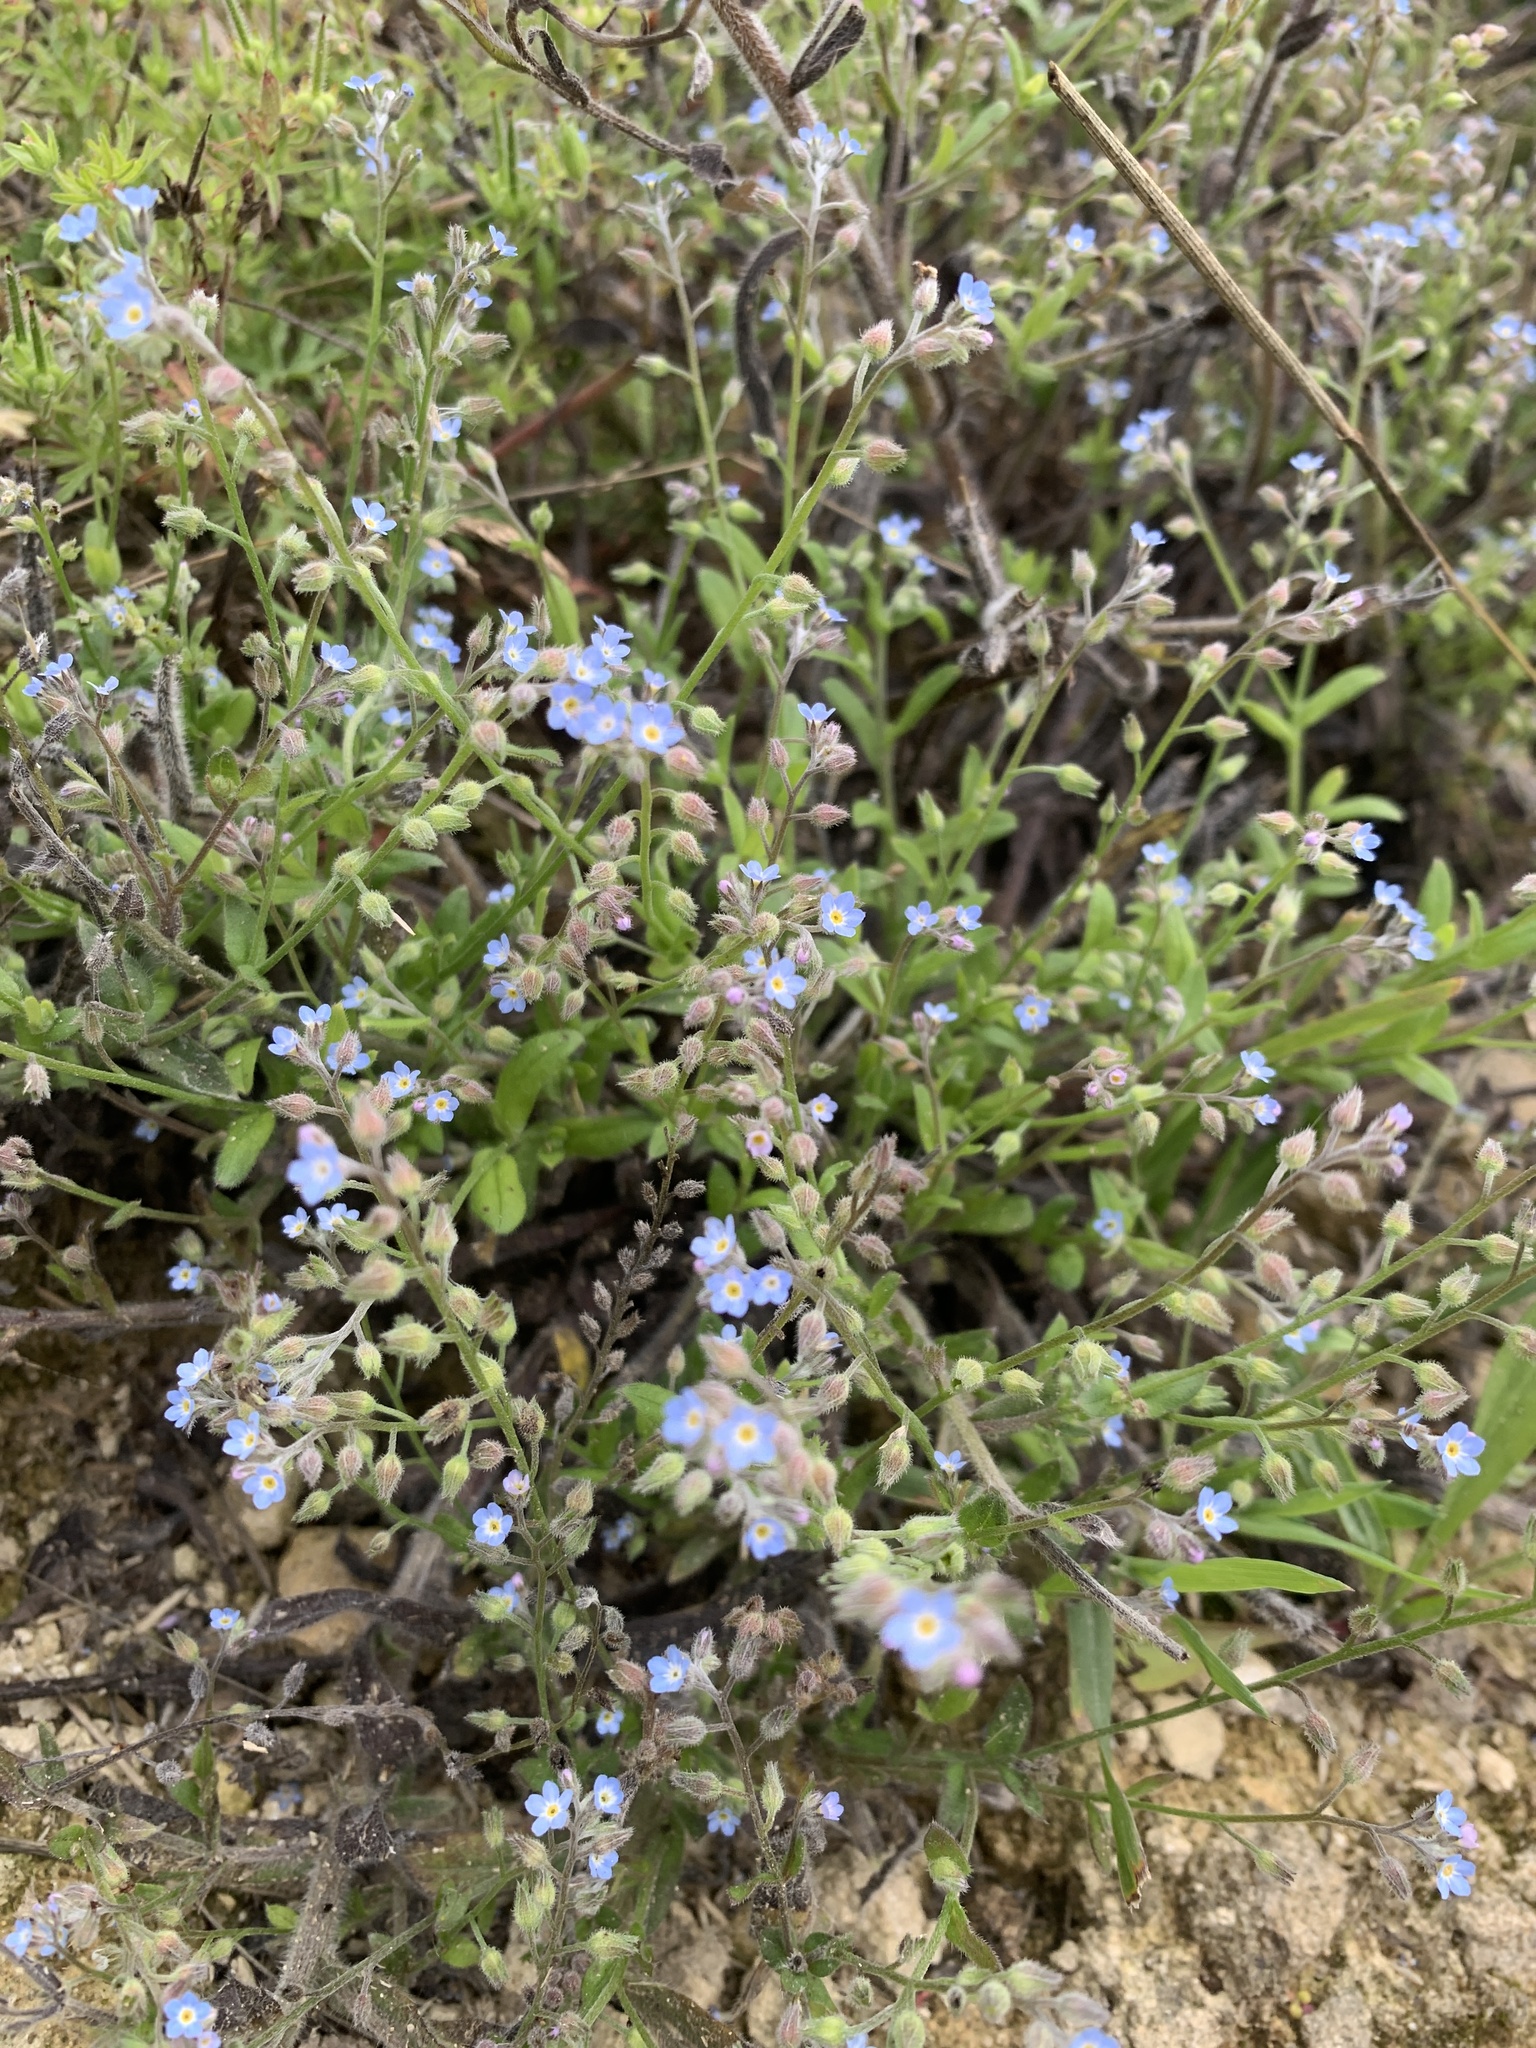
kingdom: Plantae
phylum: Tracheophyta
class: Magnoliopsida
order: Boraginales
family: Boraginaceae
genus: Myosotis
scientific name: Myosotis arvensis
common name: Field forget-me-not
